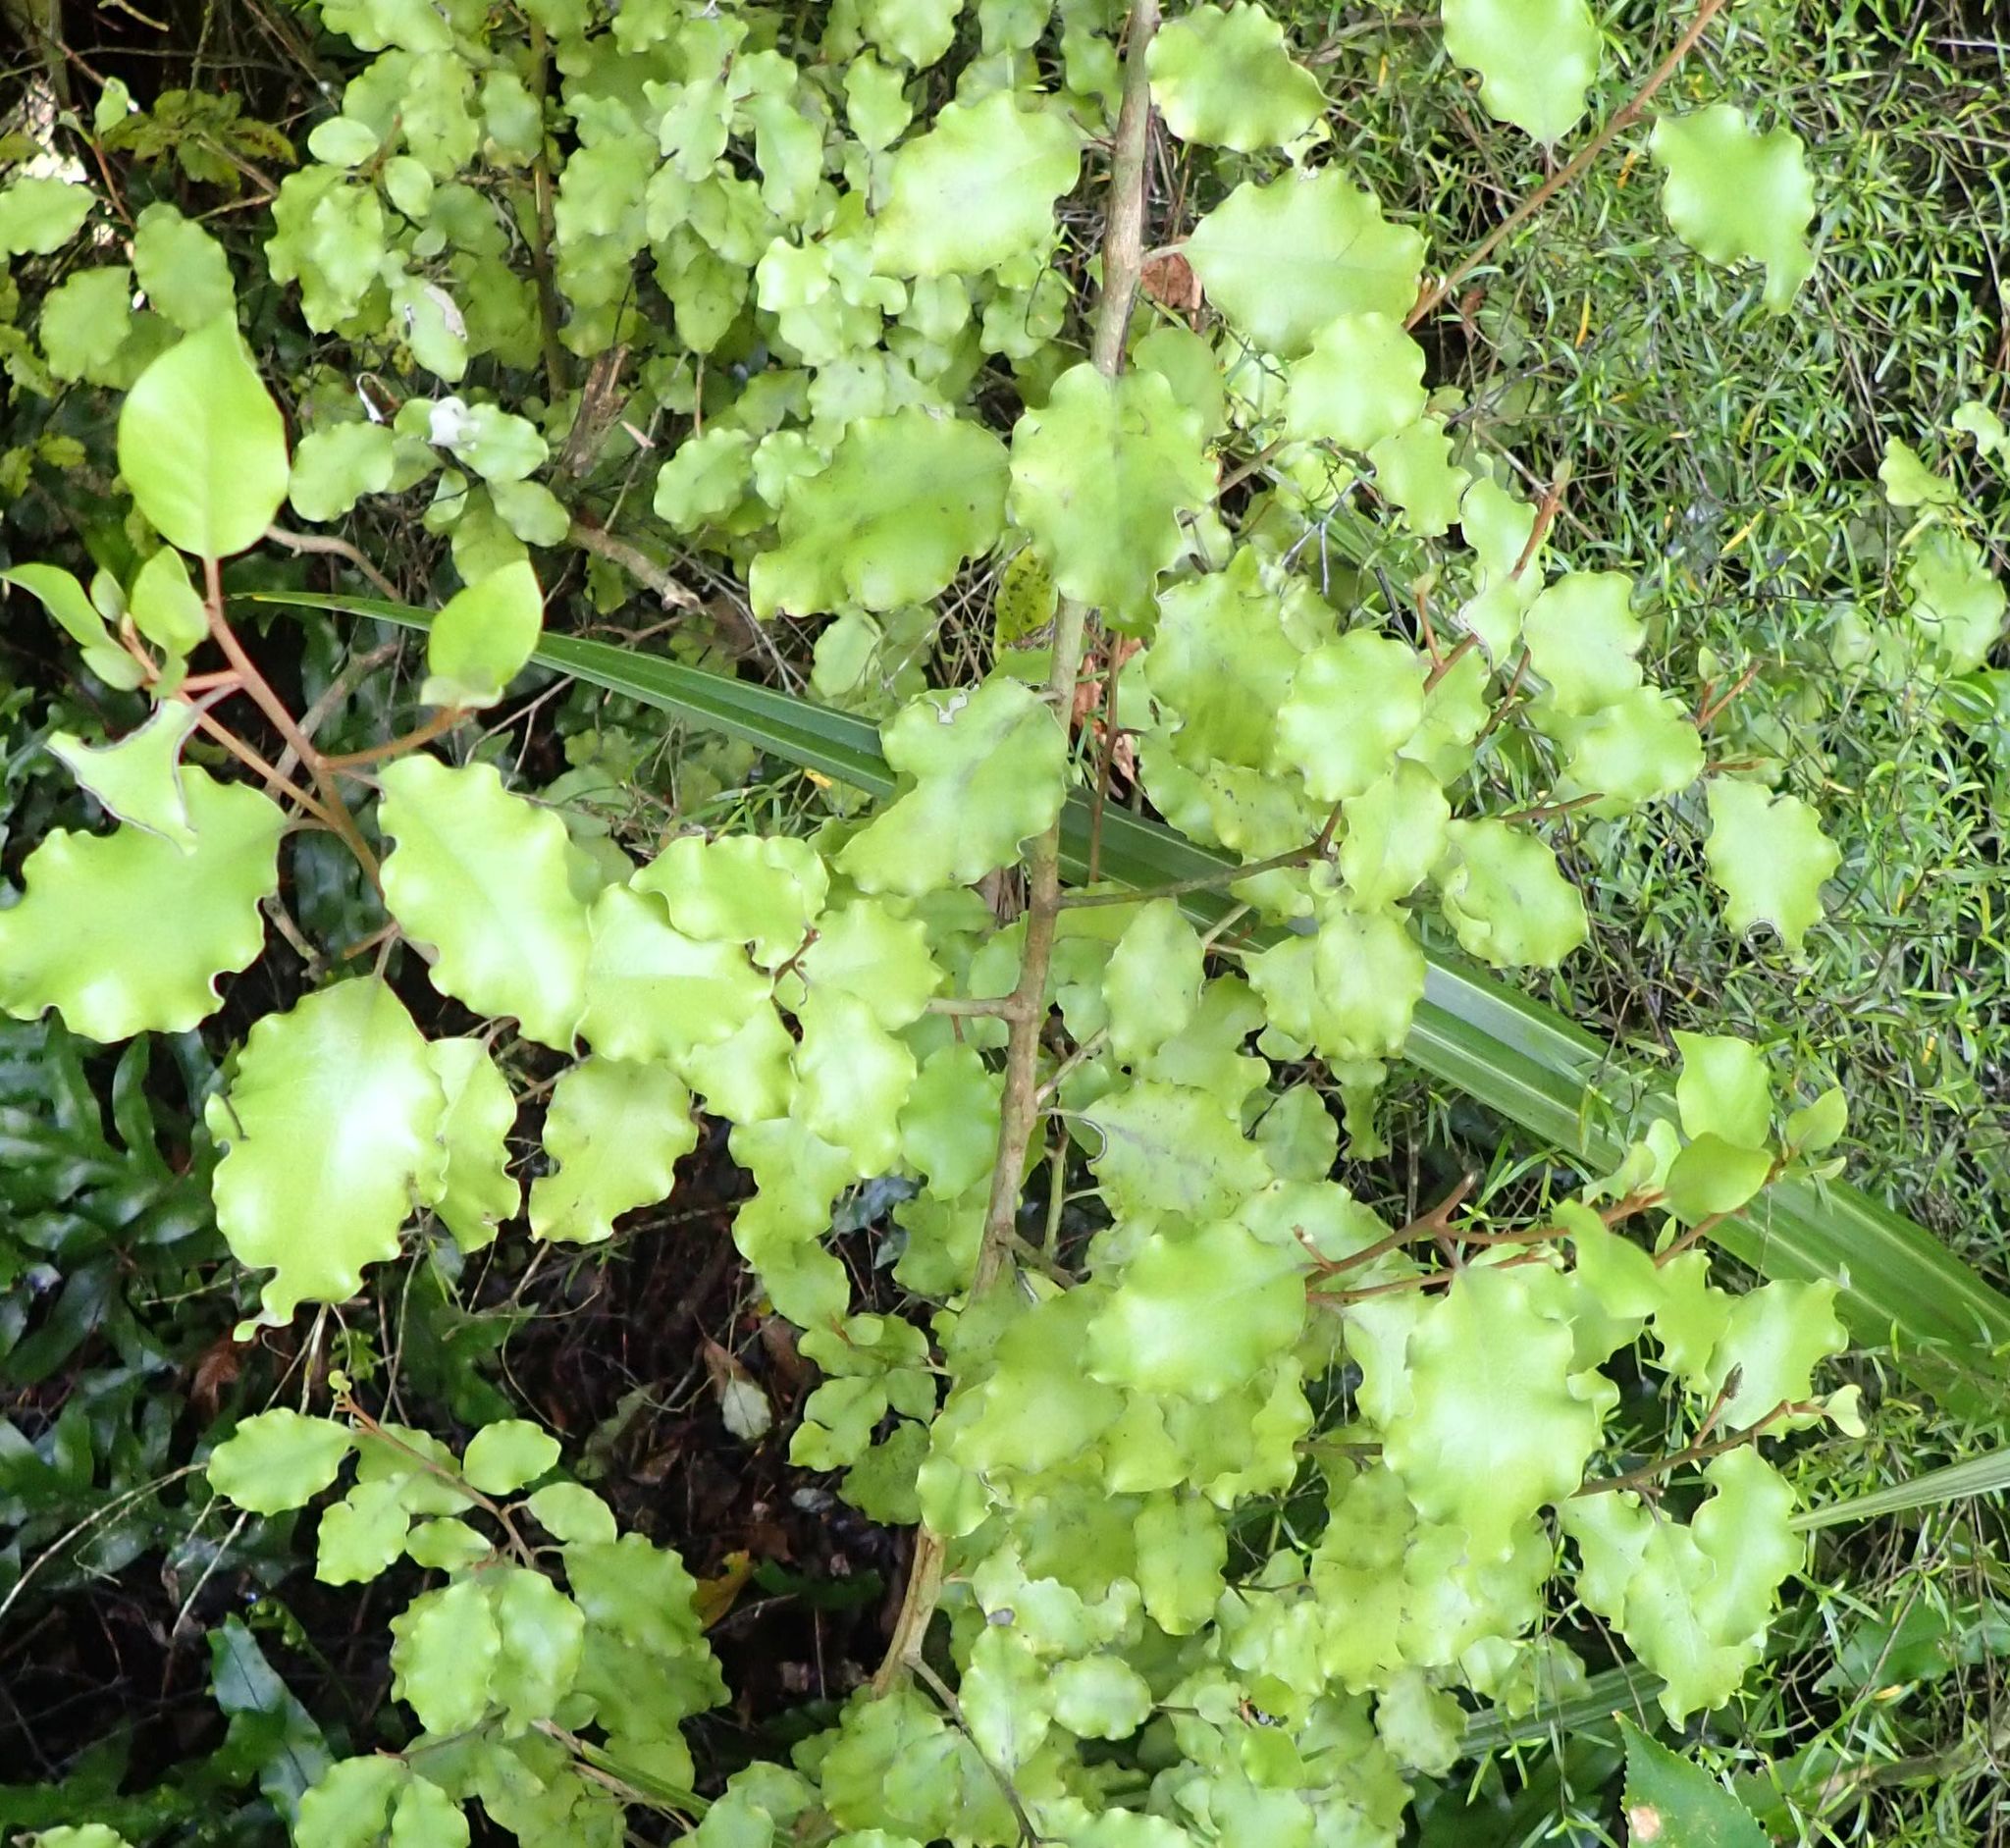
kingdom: Plantae
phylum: Tracheophyta
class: Magnoliopsida
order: Asterales
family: Asteraceae
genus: Olearia
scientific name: Olearia paniculata
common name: Akiraho
